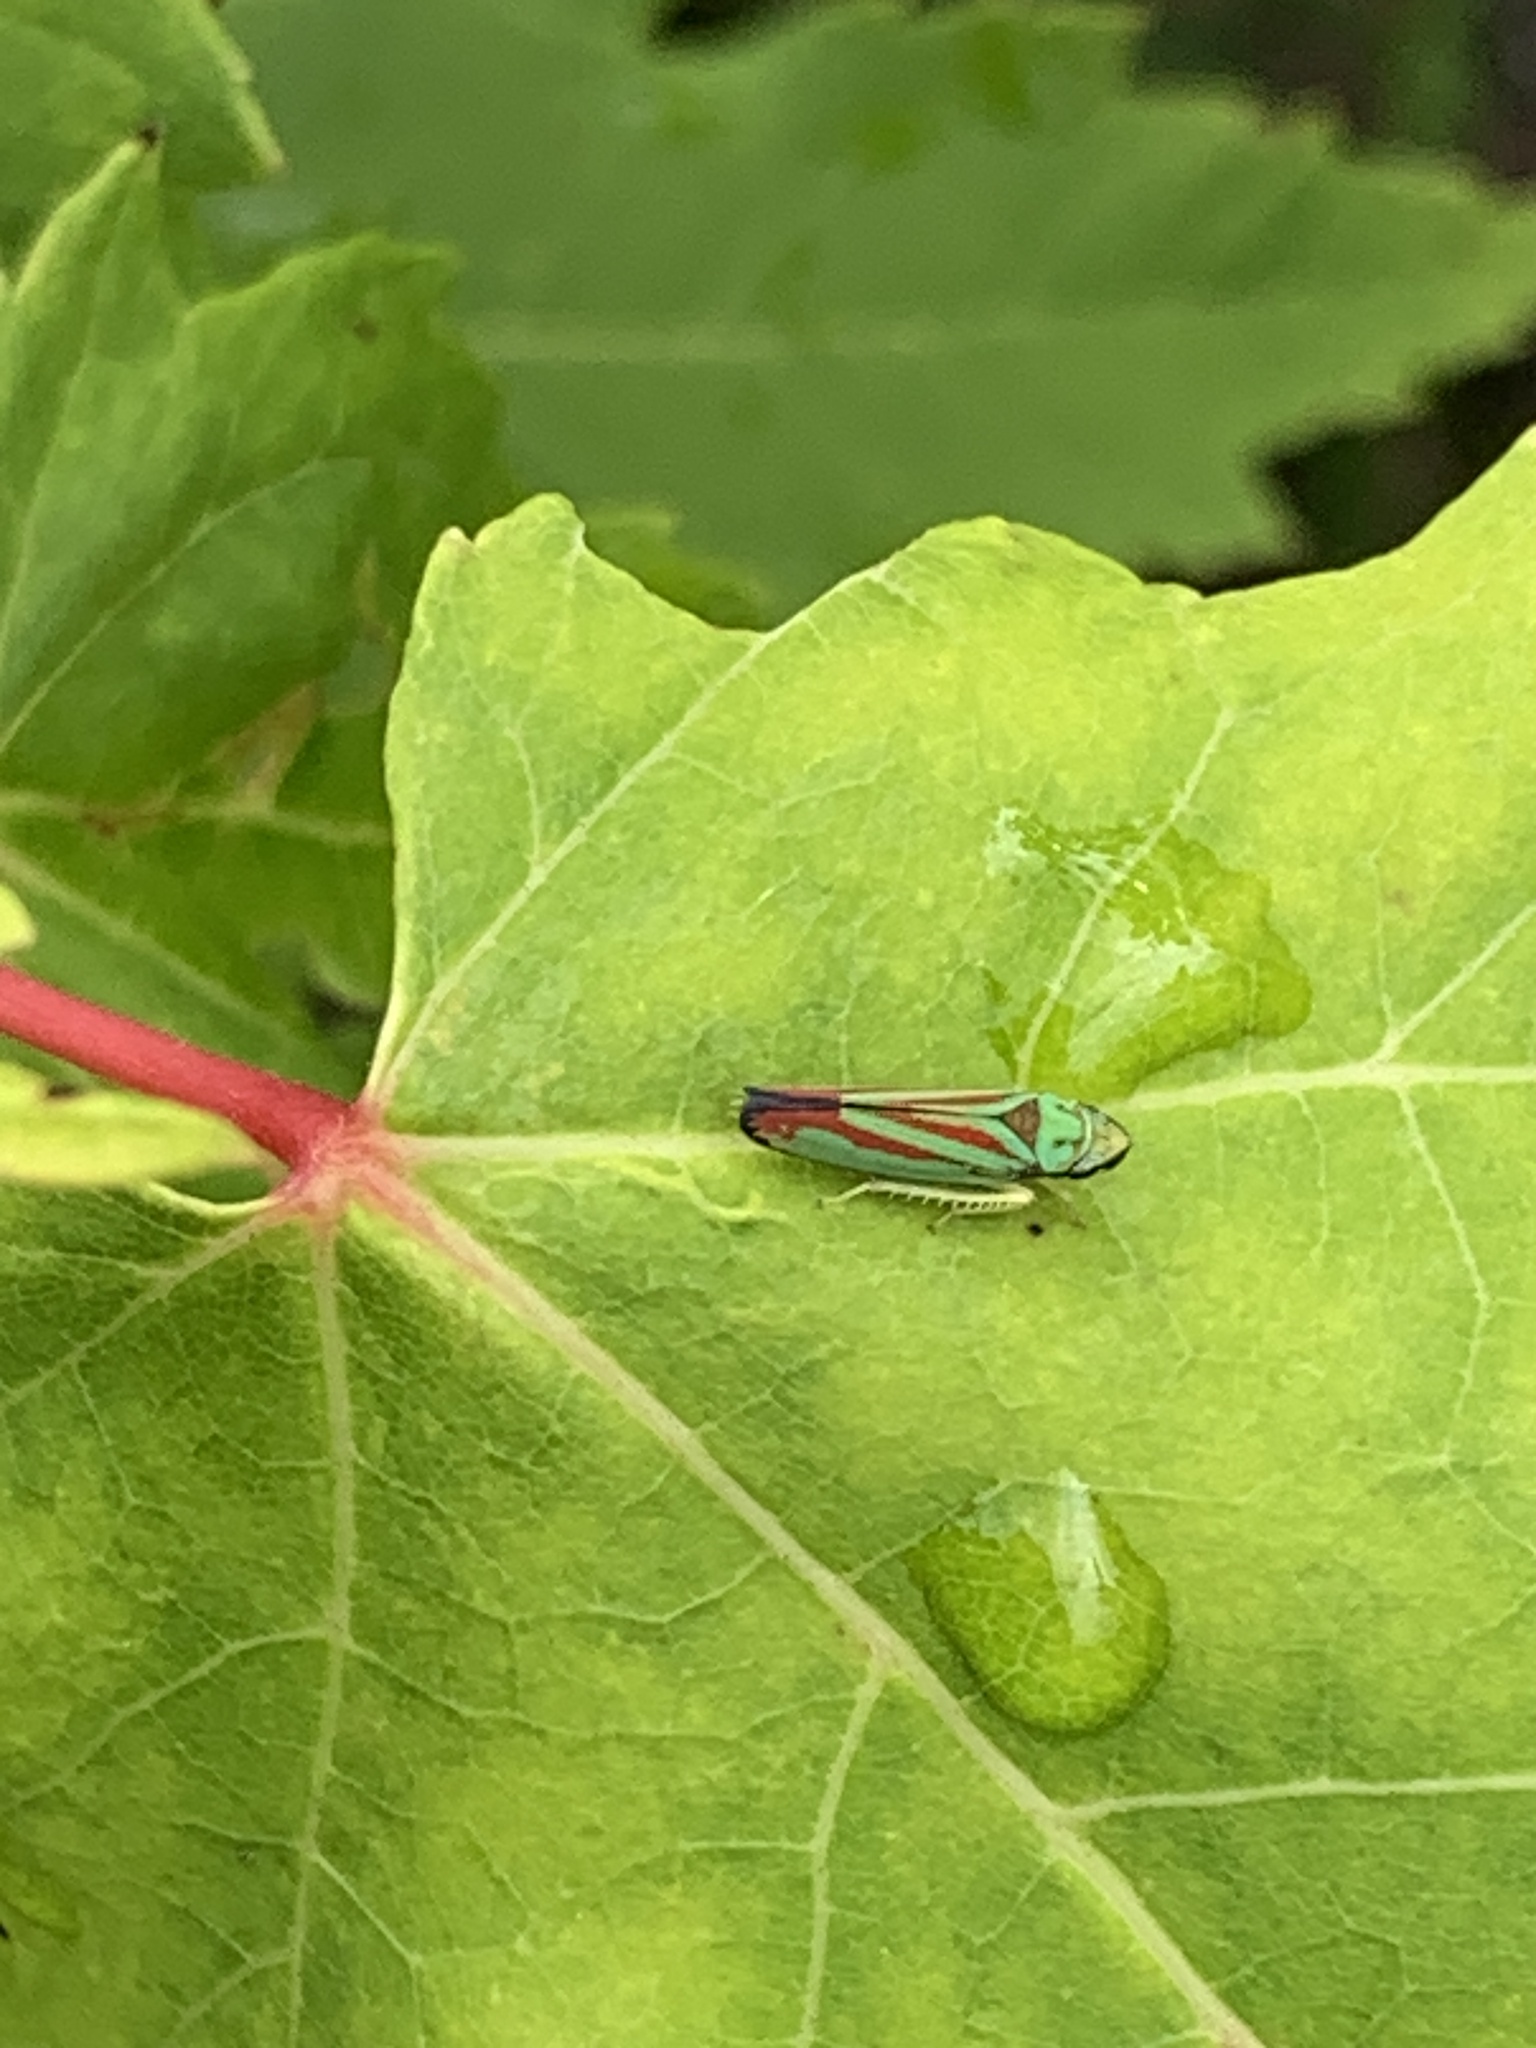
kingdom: Animalia
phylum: Arthropoda
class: Insecta
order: Hemiptera
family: Cicadellidae
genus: Graphocephala
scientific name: Graphocephala fennahi
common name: Rhododendron leafhopper
